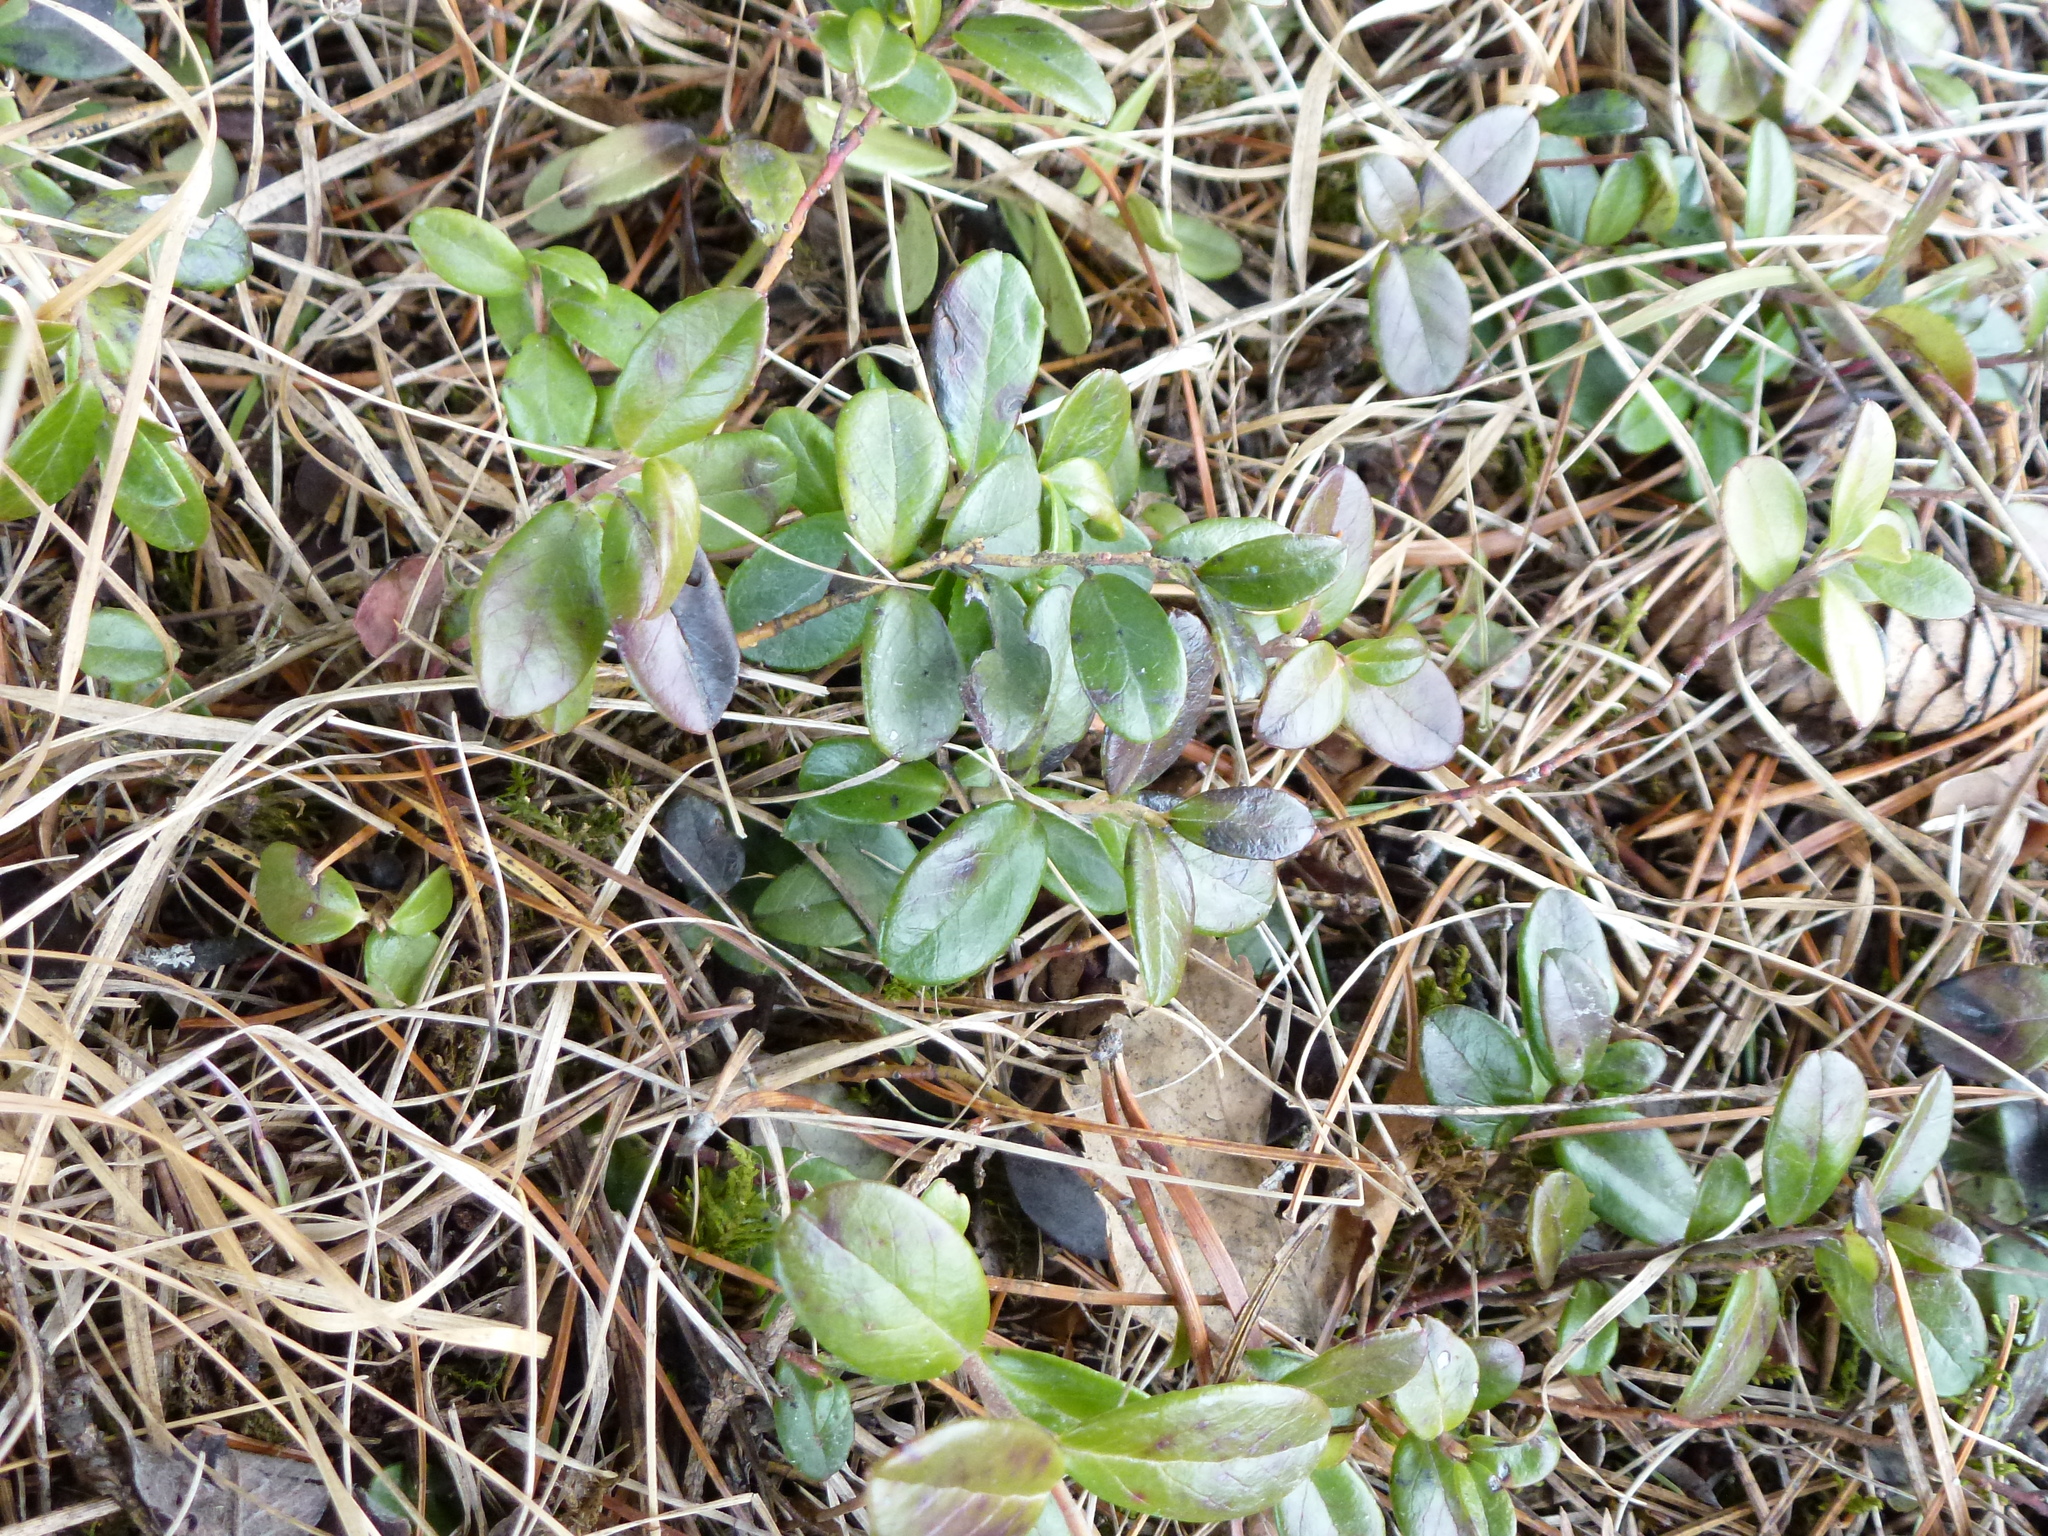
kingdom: Plantae
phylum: Tracheophyta
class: Magnoliopsida
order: Ericales
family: Ericaceae
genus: Vaccinium
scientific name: Vaccinium vitis-idaea
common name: Cowberry
